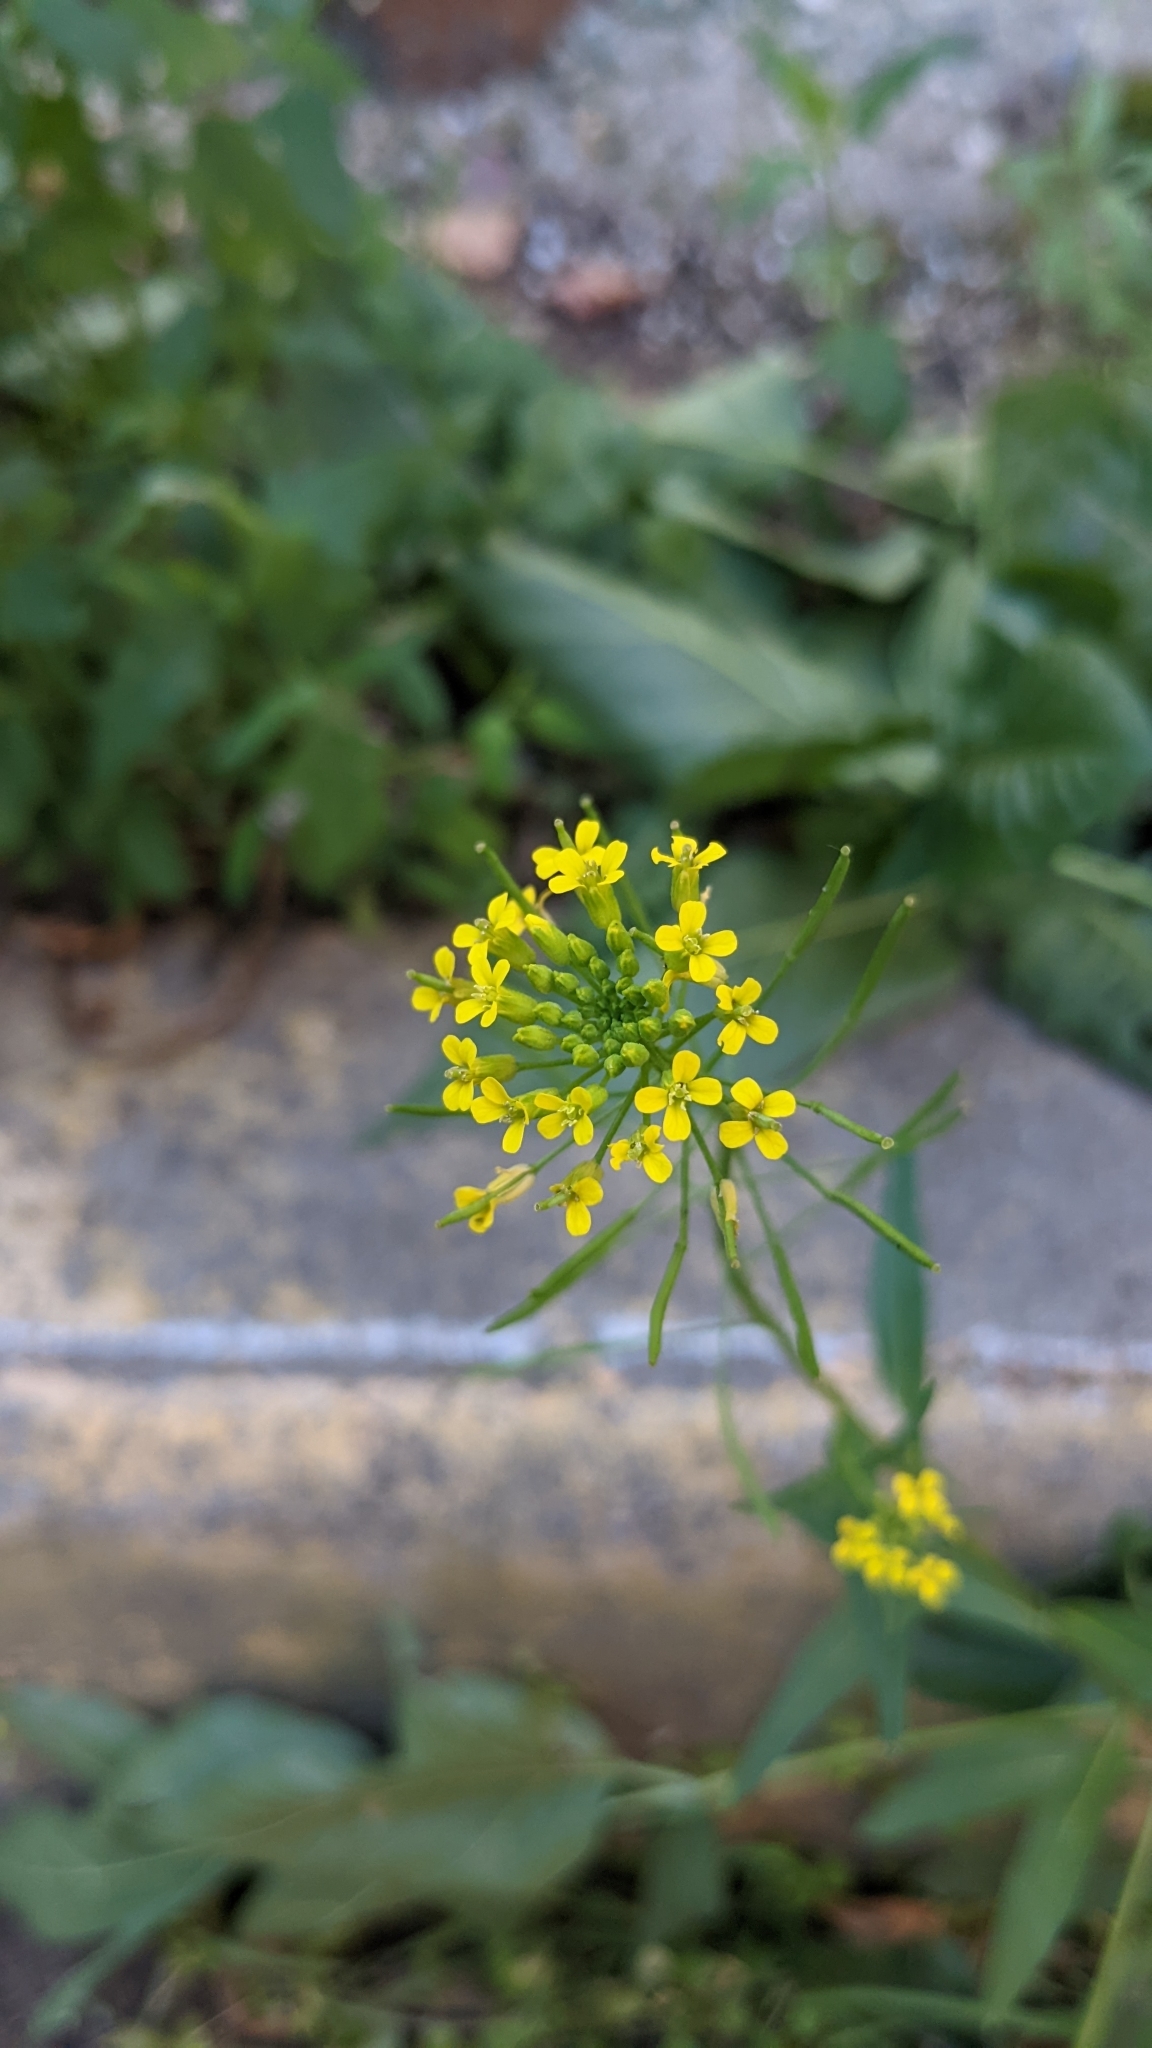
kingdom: Plantae
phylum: Tracheophyta
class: Magnoliopsida
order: Brassicales
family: Brassicaceae
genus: Erysimum
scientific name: Erysimum cheiranthoides
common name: Treacle mustard
